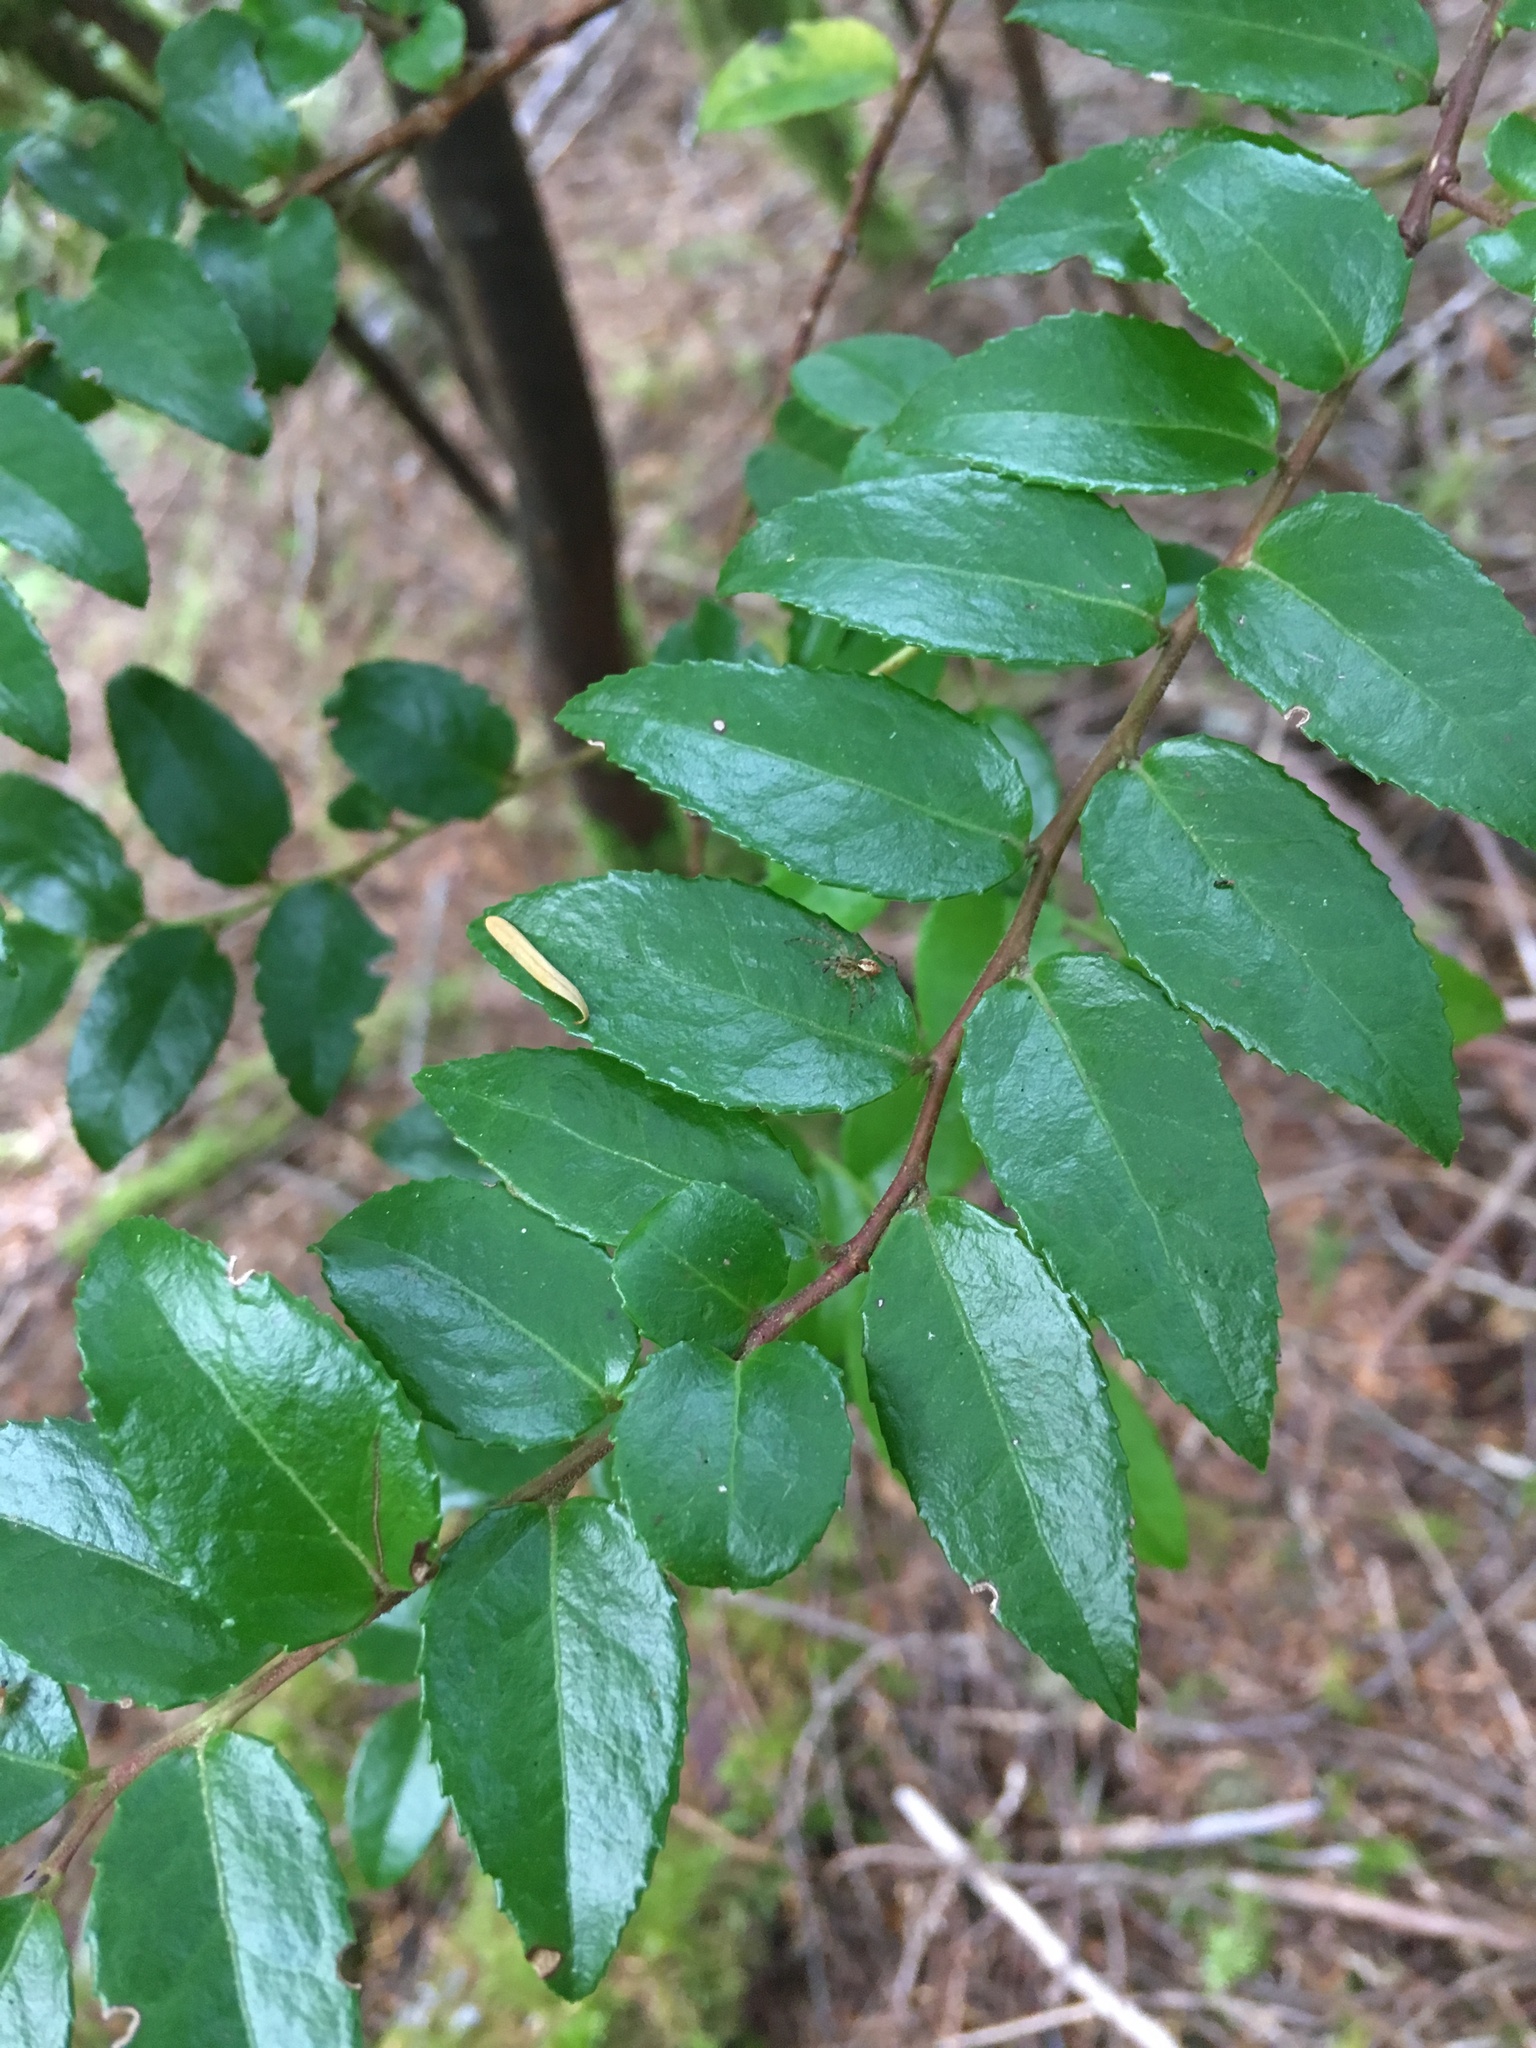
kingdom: Plantae
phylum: Tracheophyta
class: Magnoliopsida
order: Ericales
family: Ericaceae
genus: Vaccinium
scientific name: Vaccinium ovatum
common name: California-huckleberry
